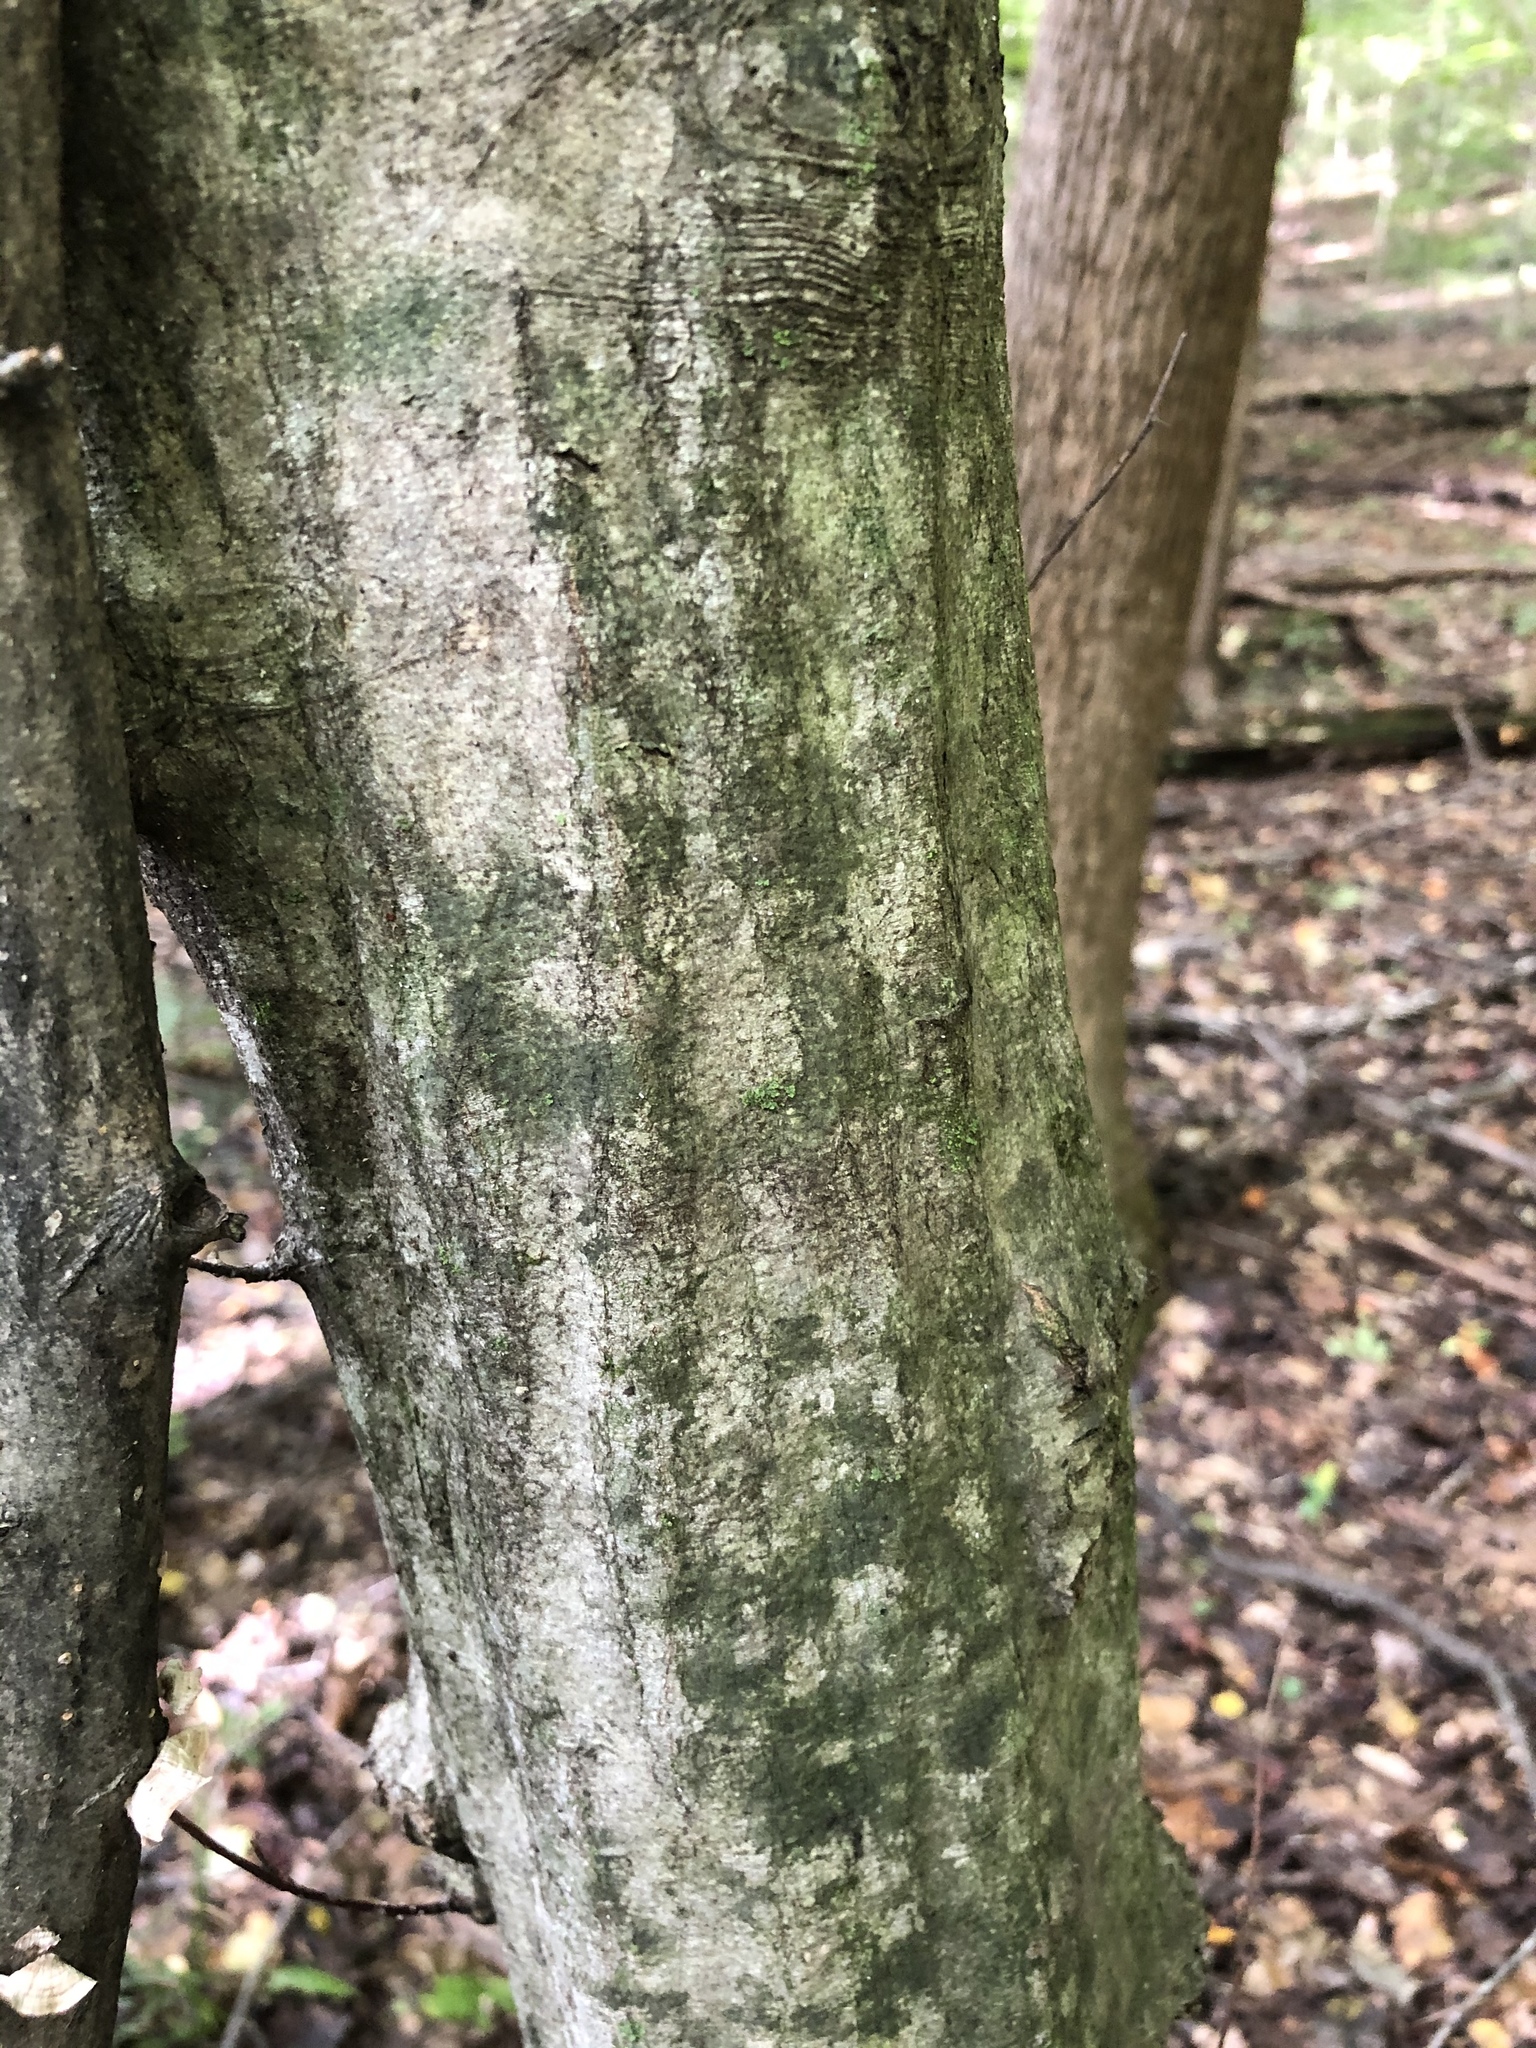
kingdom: Plantae
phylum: Tracheophyta
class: Magnoliopsida
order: Fagales
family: Betulaceae
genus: Carpinus
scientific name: Carpinus caroliniana
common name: American hornbeam
